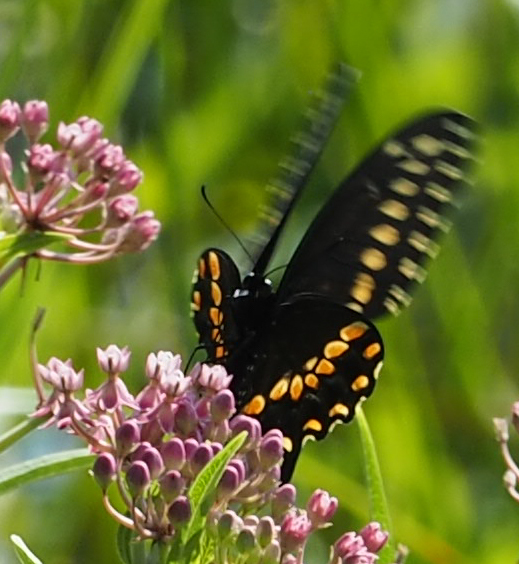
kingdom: Animalia
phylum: Arthropoda
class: Insecta
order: Lepidoptera
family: Papilionidae
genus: Papilio
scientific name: Papilio polyxenes
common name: Black swallowtail
